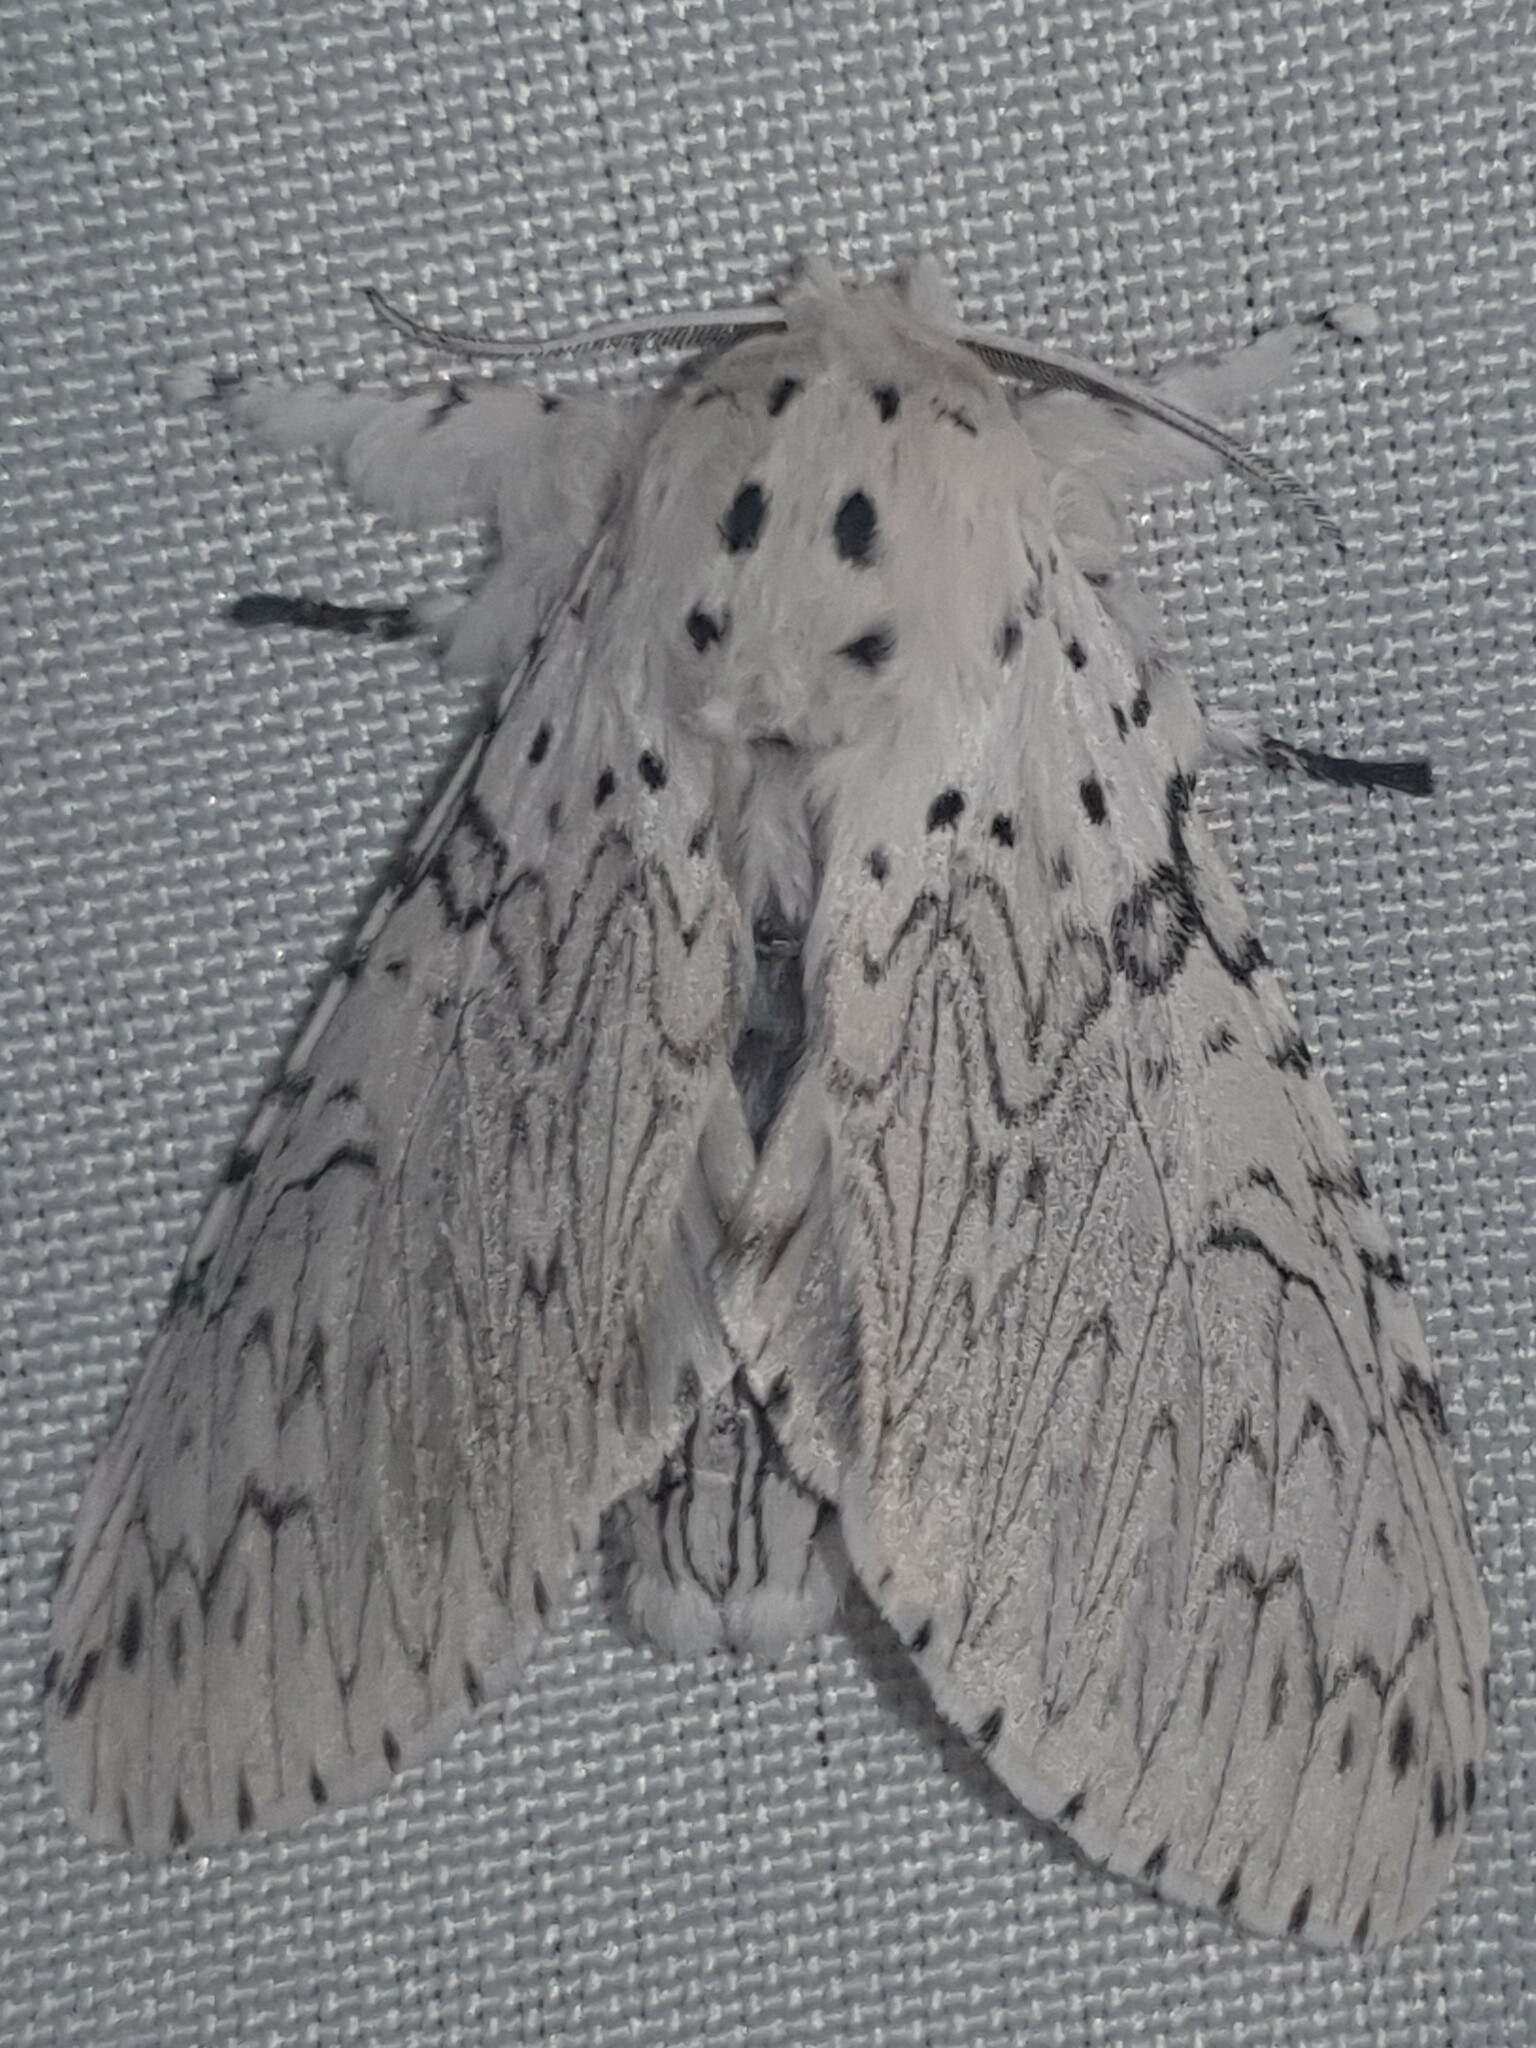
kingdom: Animalia
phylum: Arthropoda
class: Insecta
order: Lepidoptera
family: Notodontidae
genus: Cerura
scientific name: Cerura erminea
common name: Lesser puss moth
